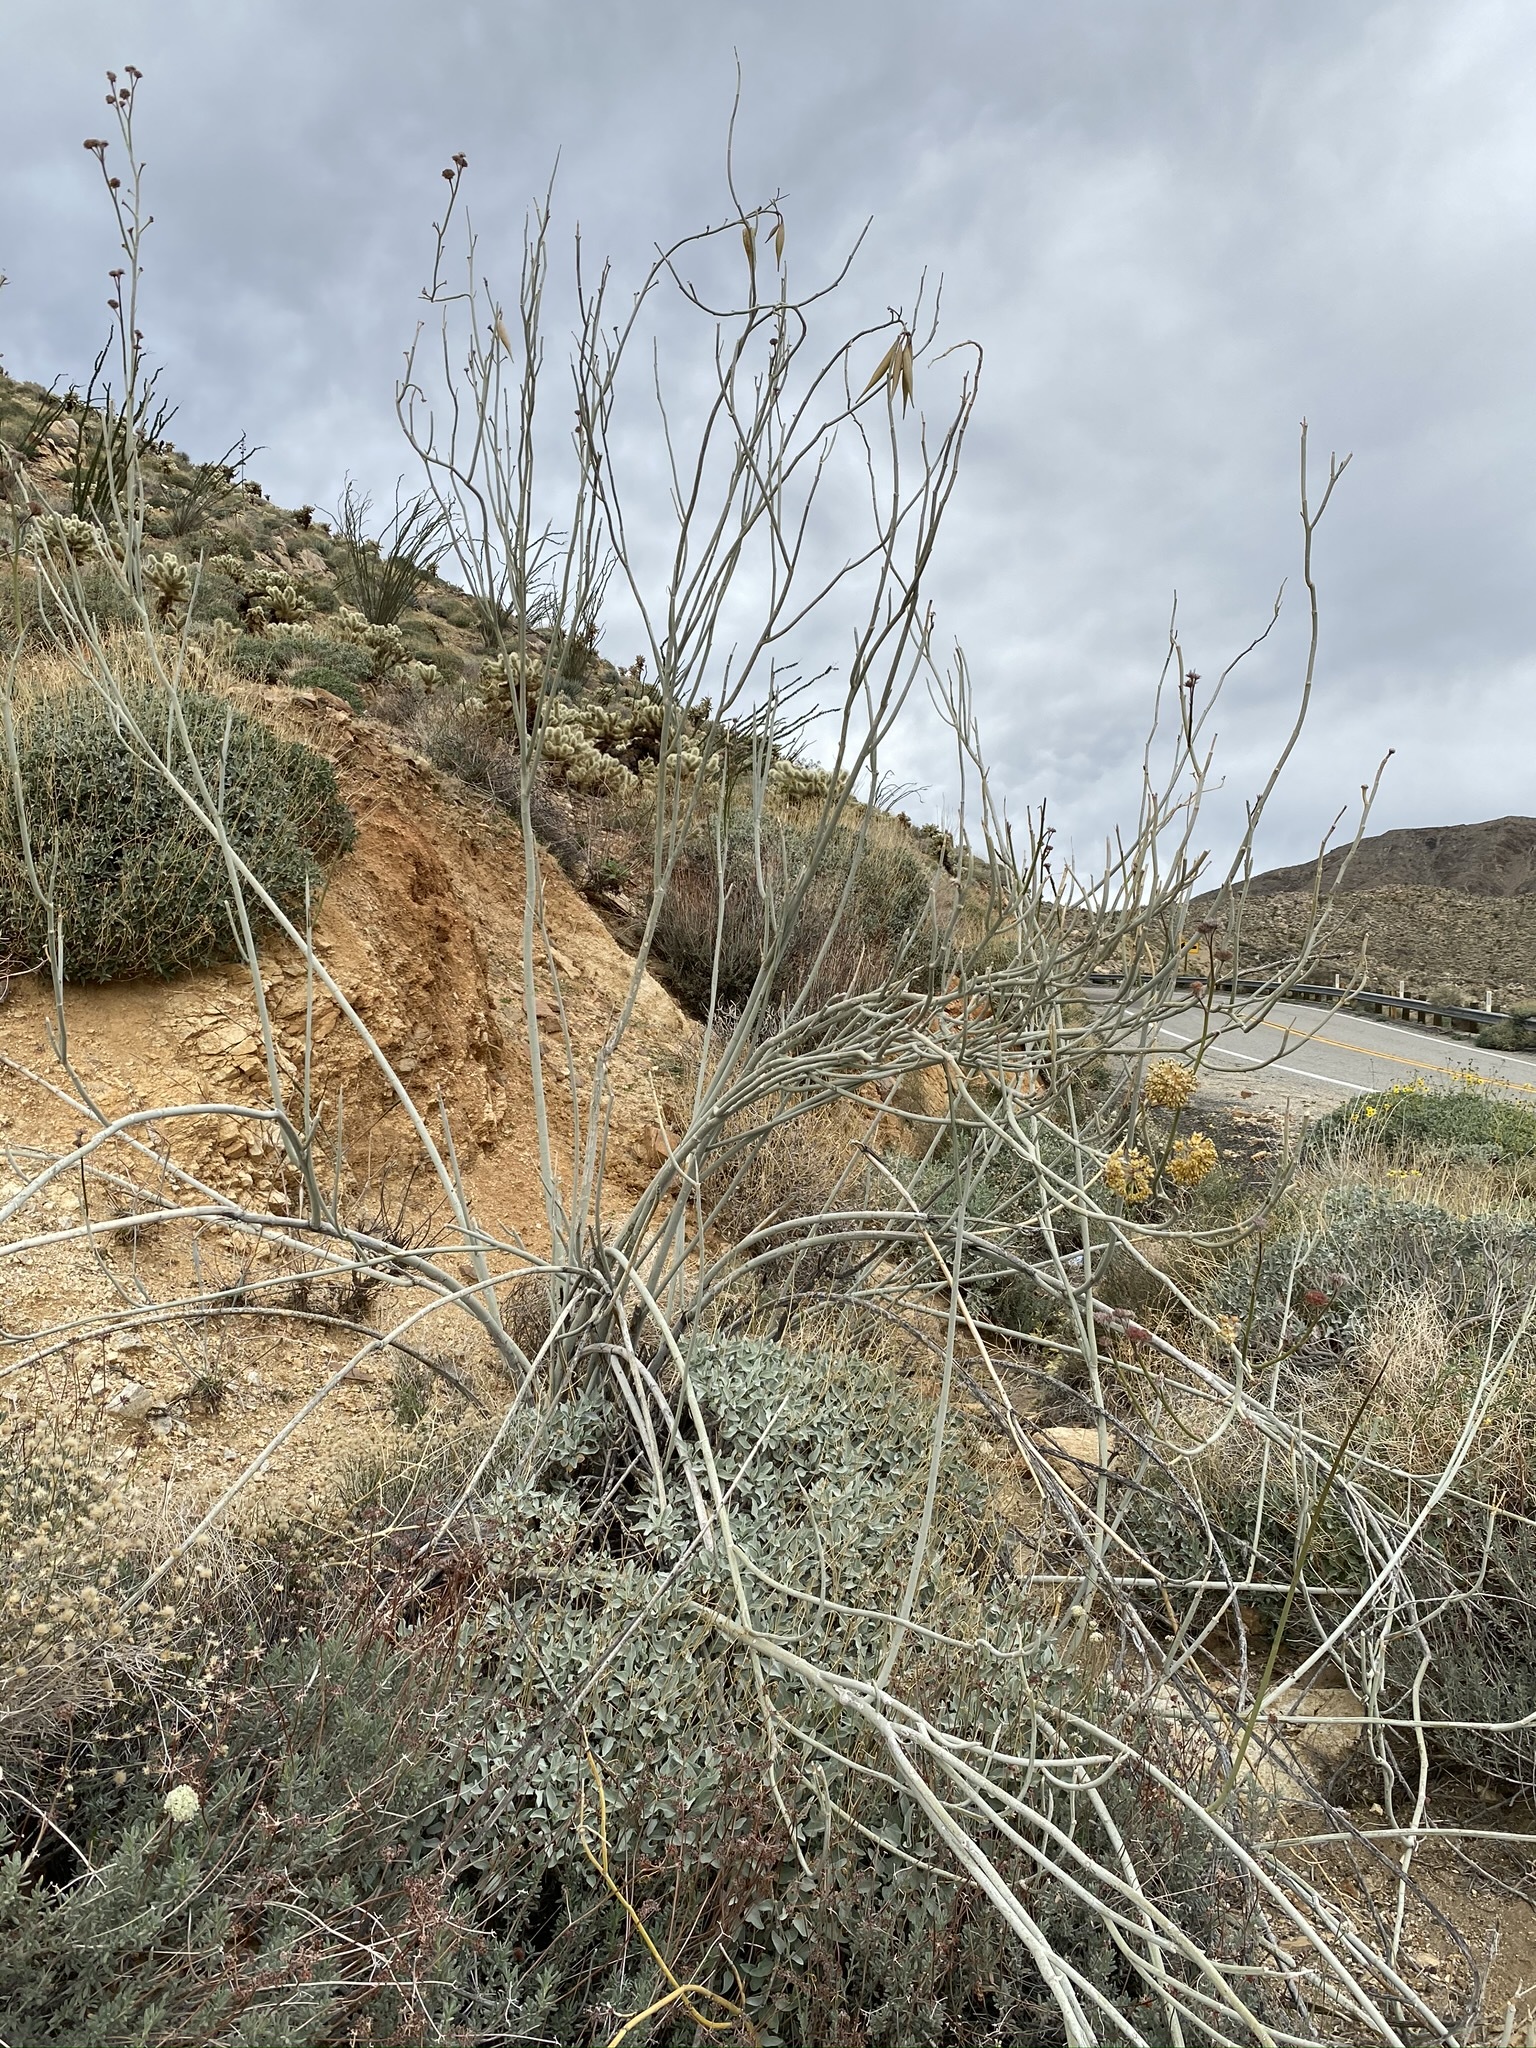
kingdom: Plantae
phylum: Tracheophyta
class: Magnoliopsida
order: Gentianales
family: Apocynaceae
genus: Asclepias
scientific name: Asclepias albicans
